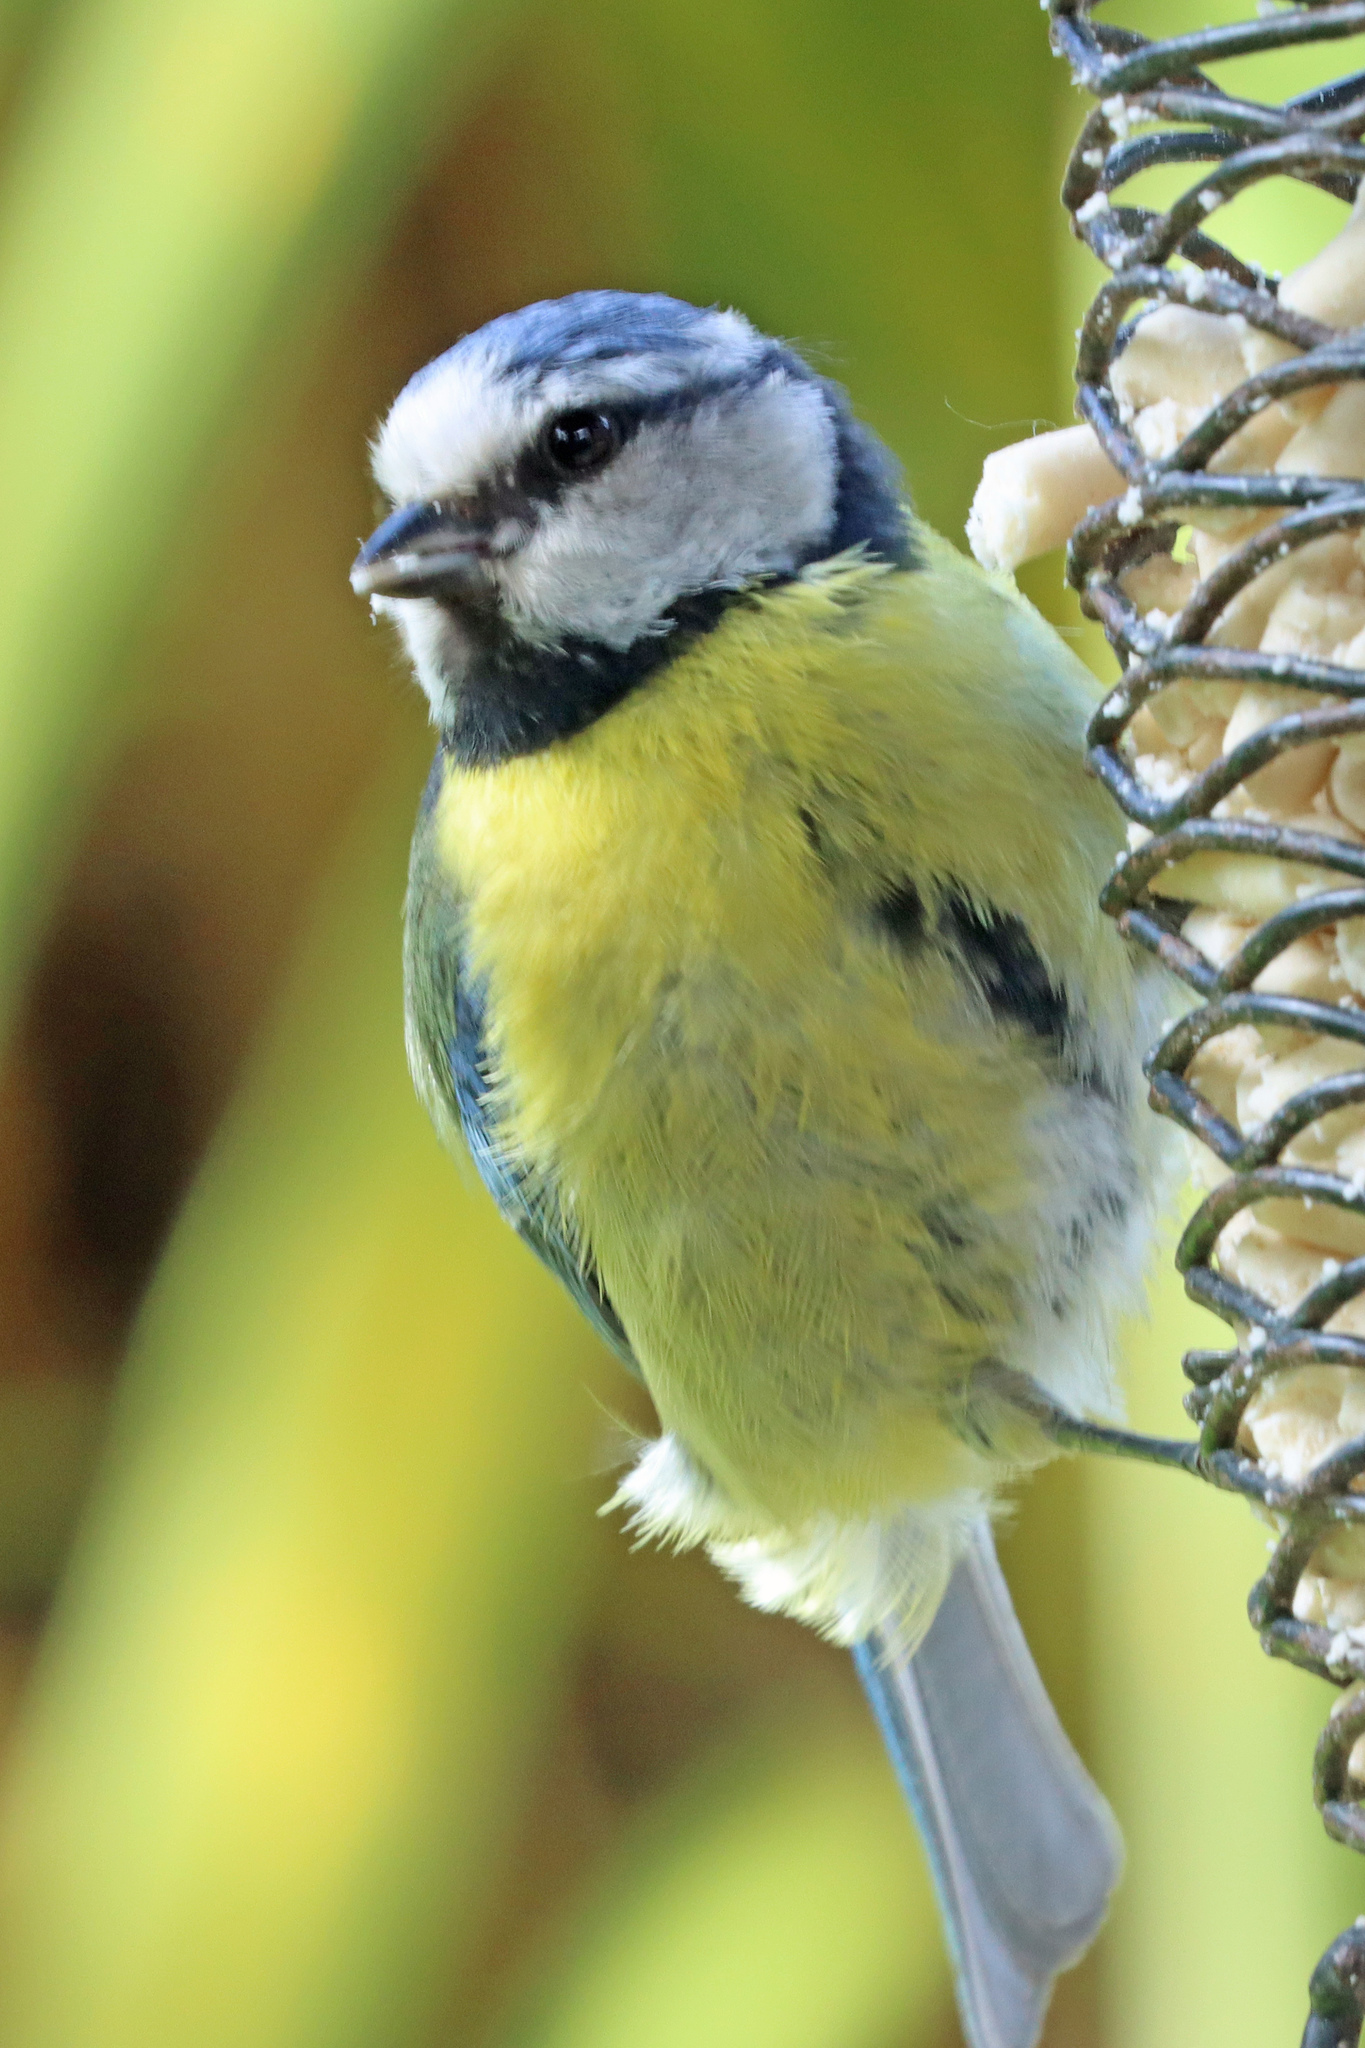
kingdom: Animalia
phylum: Chordata
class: Aves
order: Passeriformes
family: Paridae
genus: Cyanistes
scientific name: Cyanistes caeruleus
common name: Eurasian blue tit
